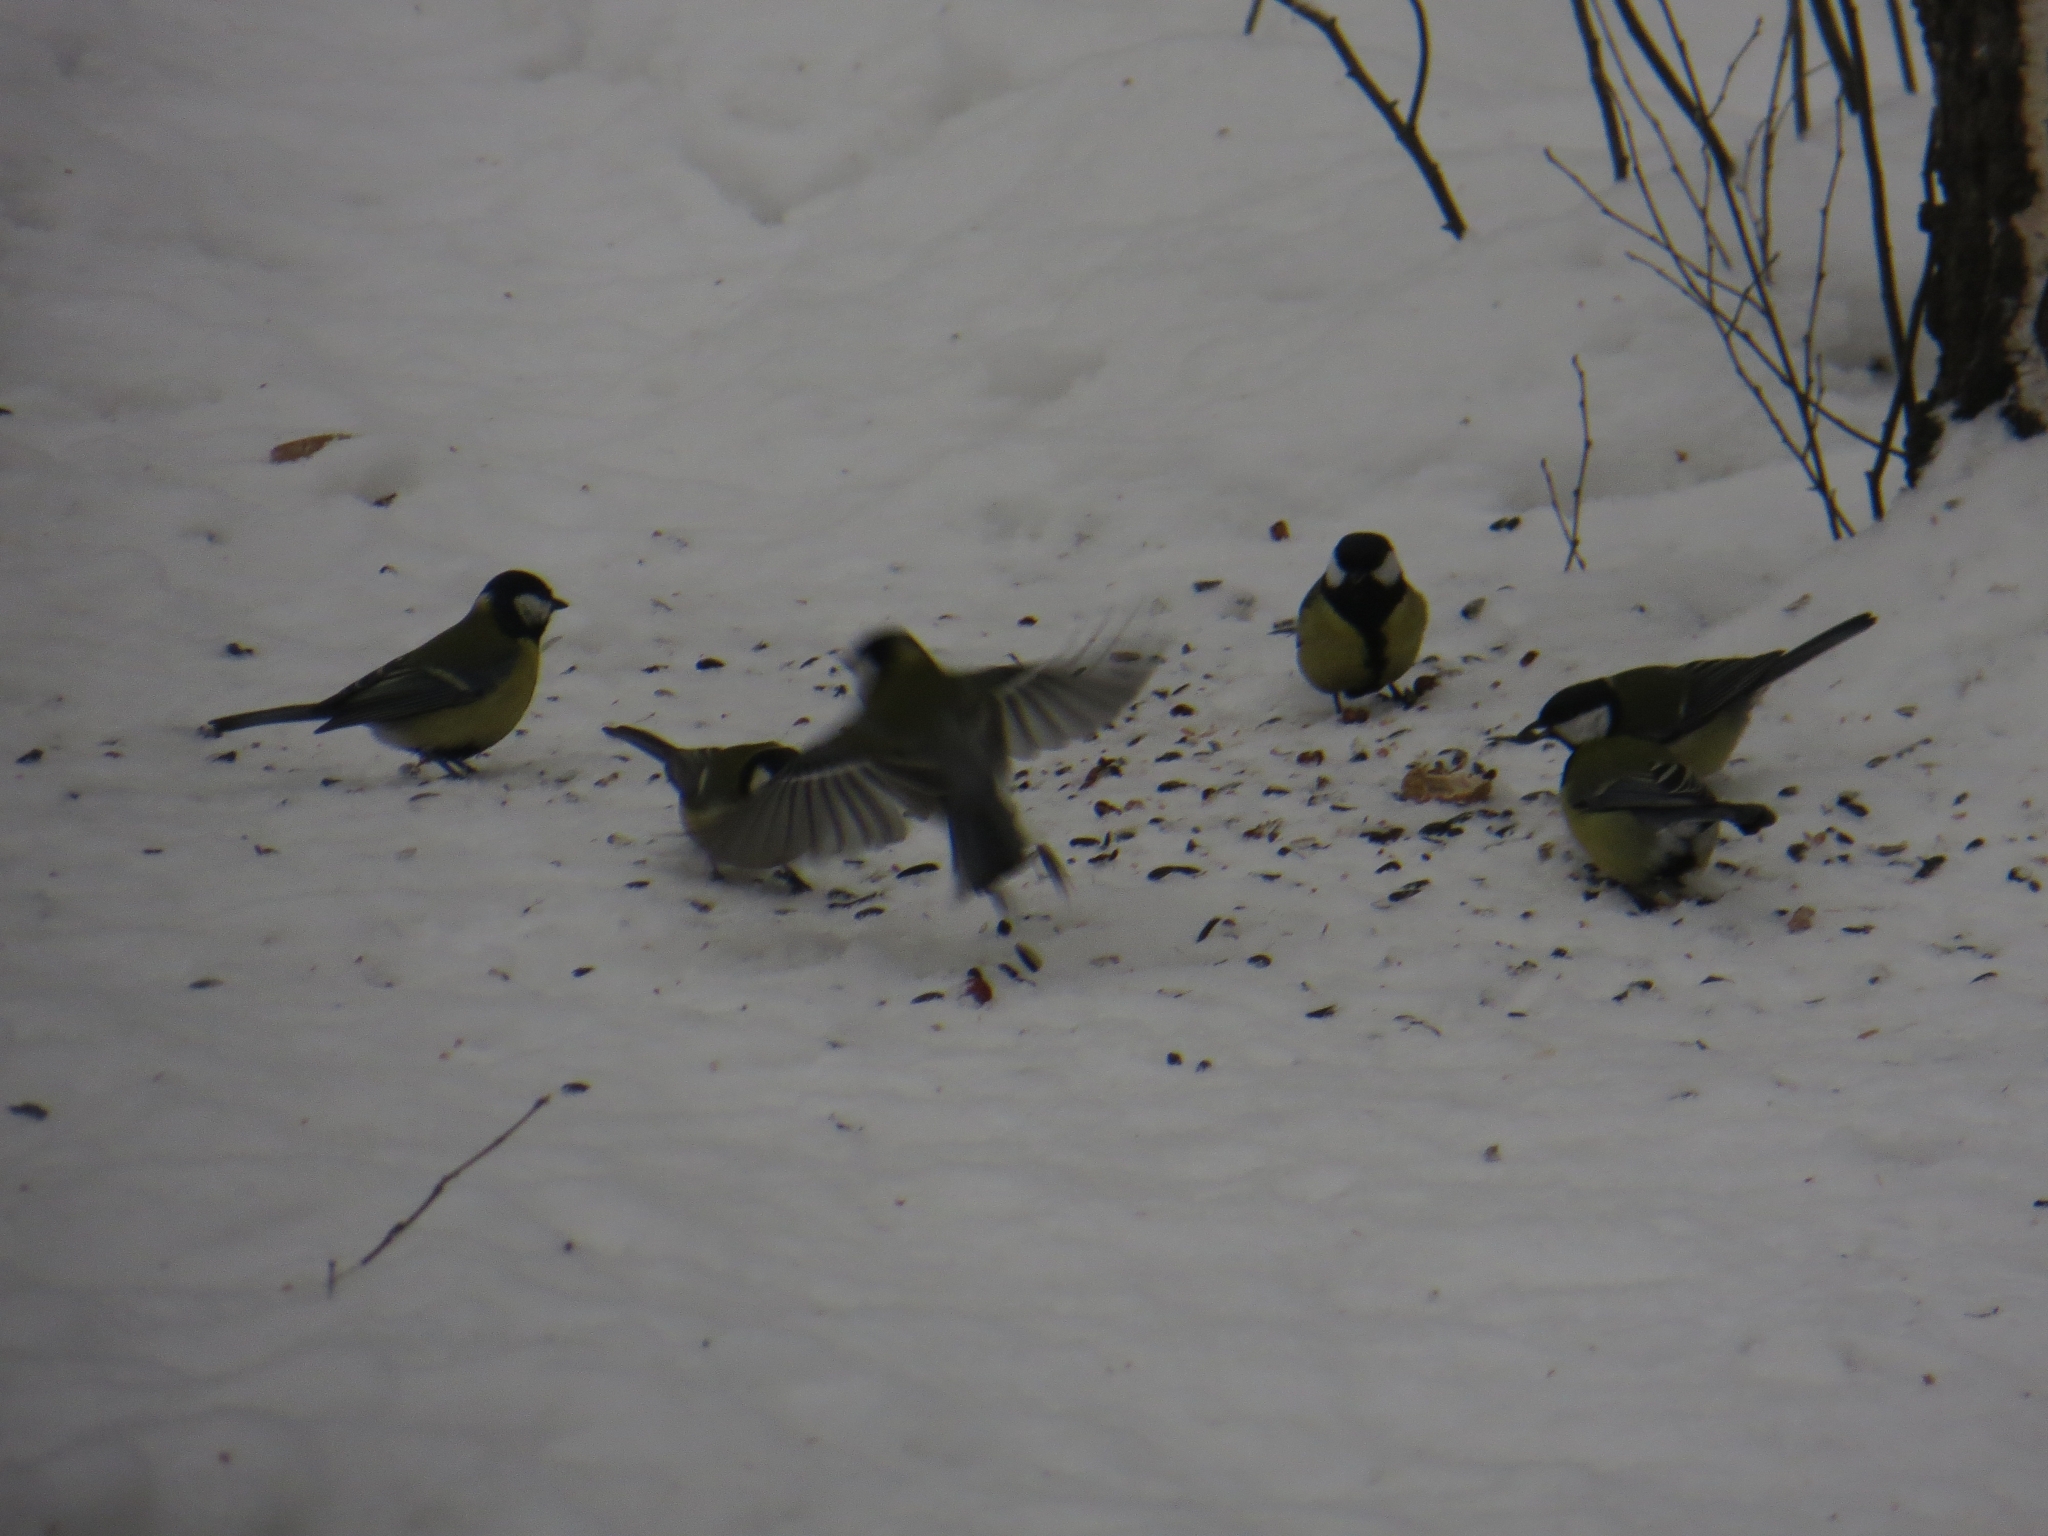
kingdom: Animalia
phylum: Chordata
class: Aves
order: Passeriformes
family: Paridae
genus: Parus
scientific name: Parus major
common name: Great tit
